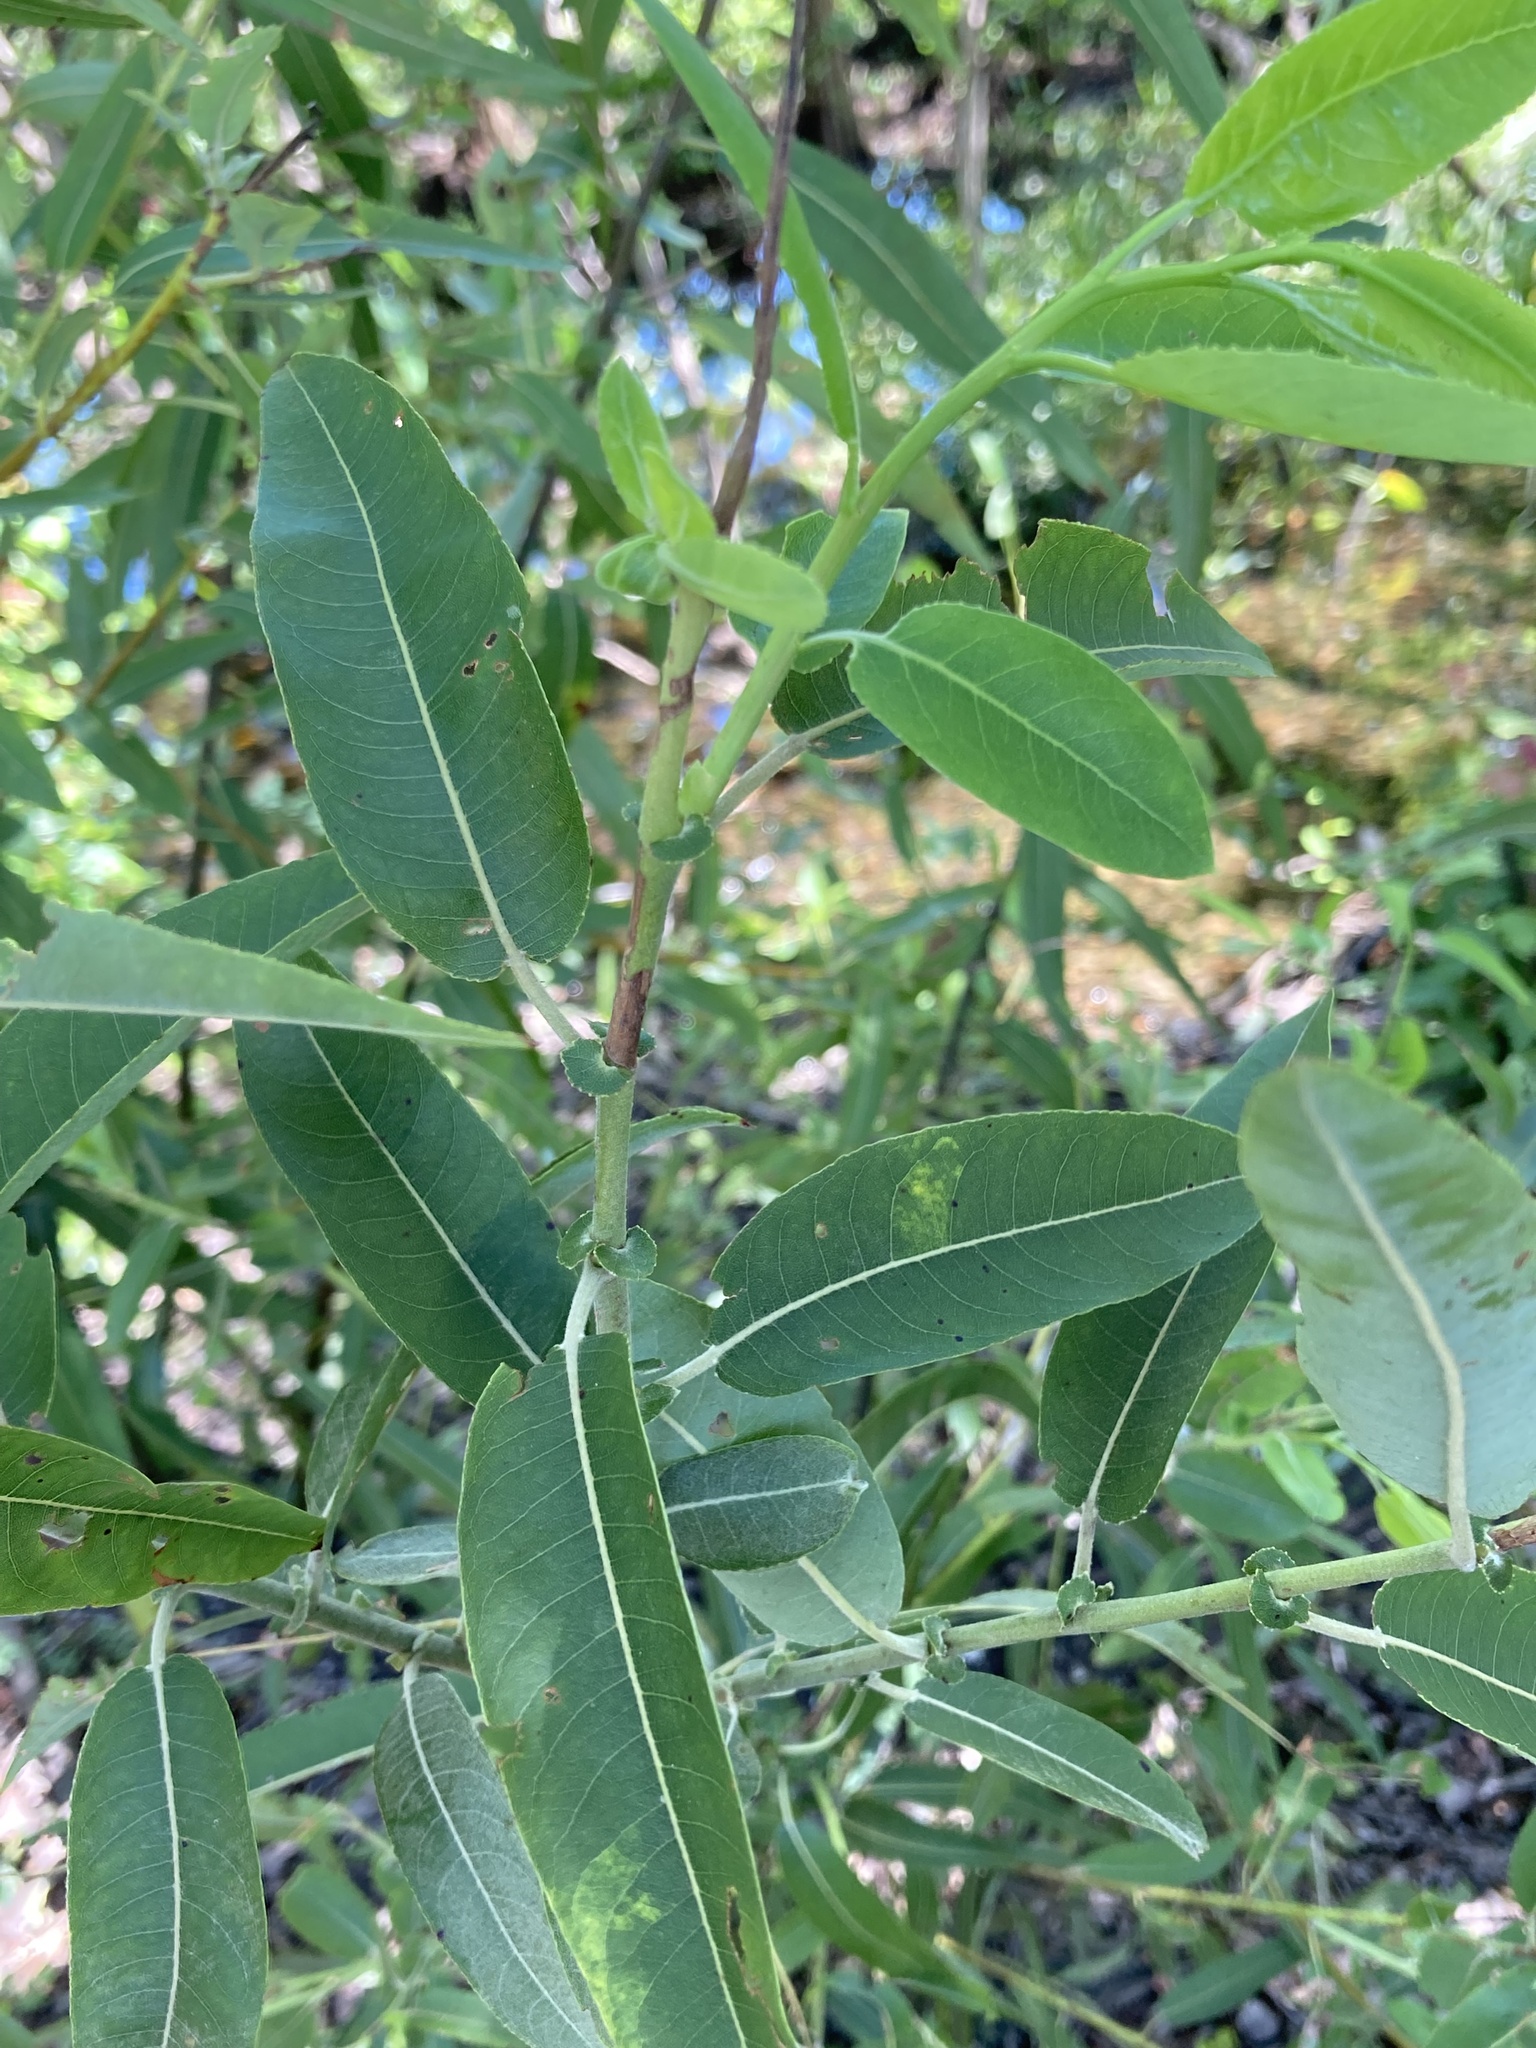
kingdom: Plantae
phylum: Tracheophyta
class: Magnoliopsida
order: Malpighiales
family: Salicaceae
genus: Salix
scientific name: Salix caroliniana
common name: Carolina willow
